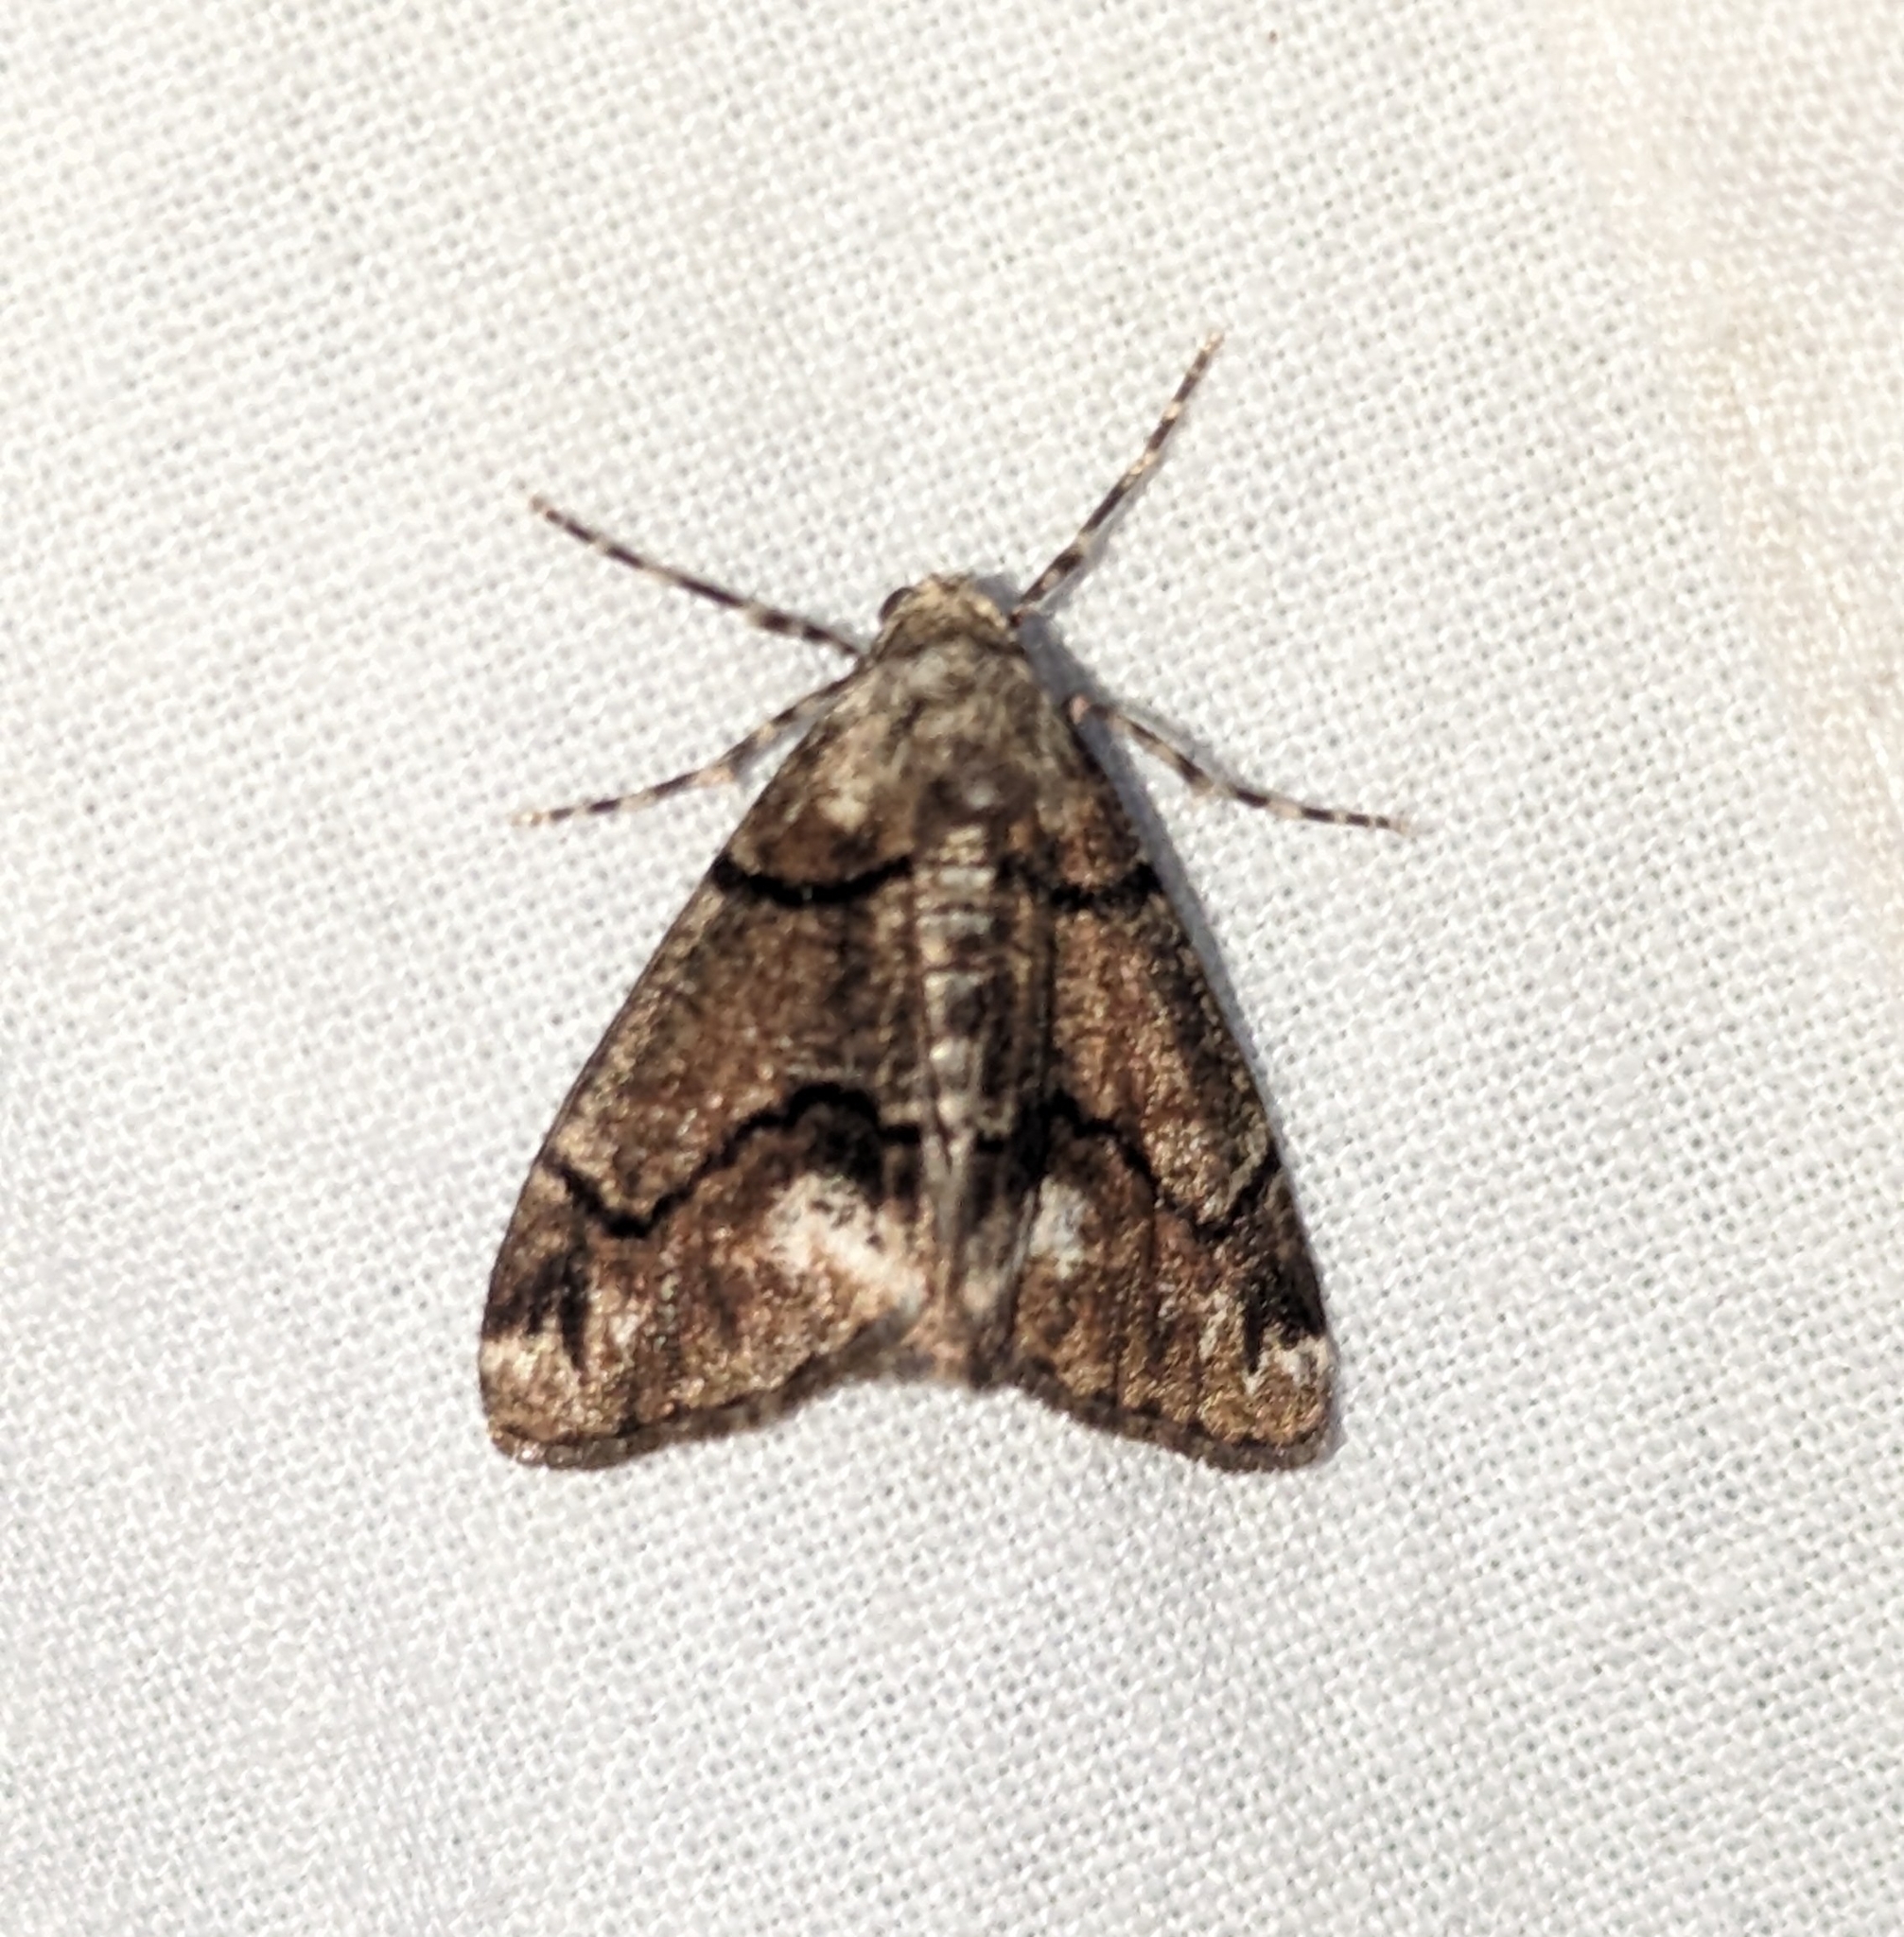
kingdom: Animalia
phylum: Arthropoda
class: Insecta
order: Lepidoptera
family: Geometridae
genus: Gabriola
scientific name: Gabriola dyari
